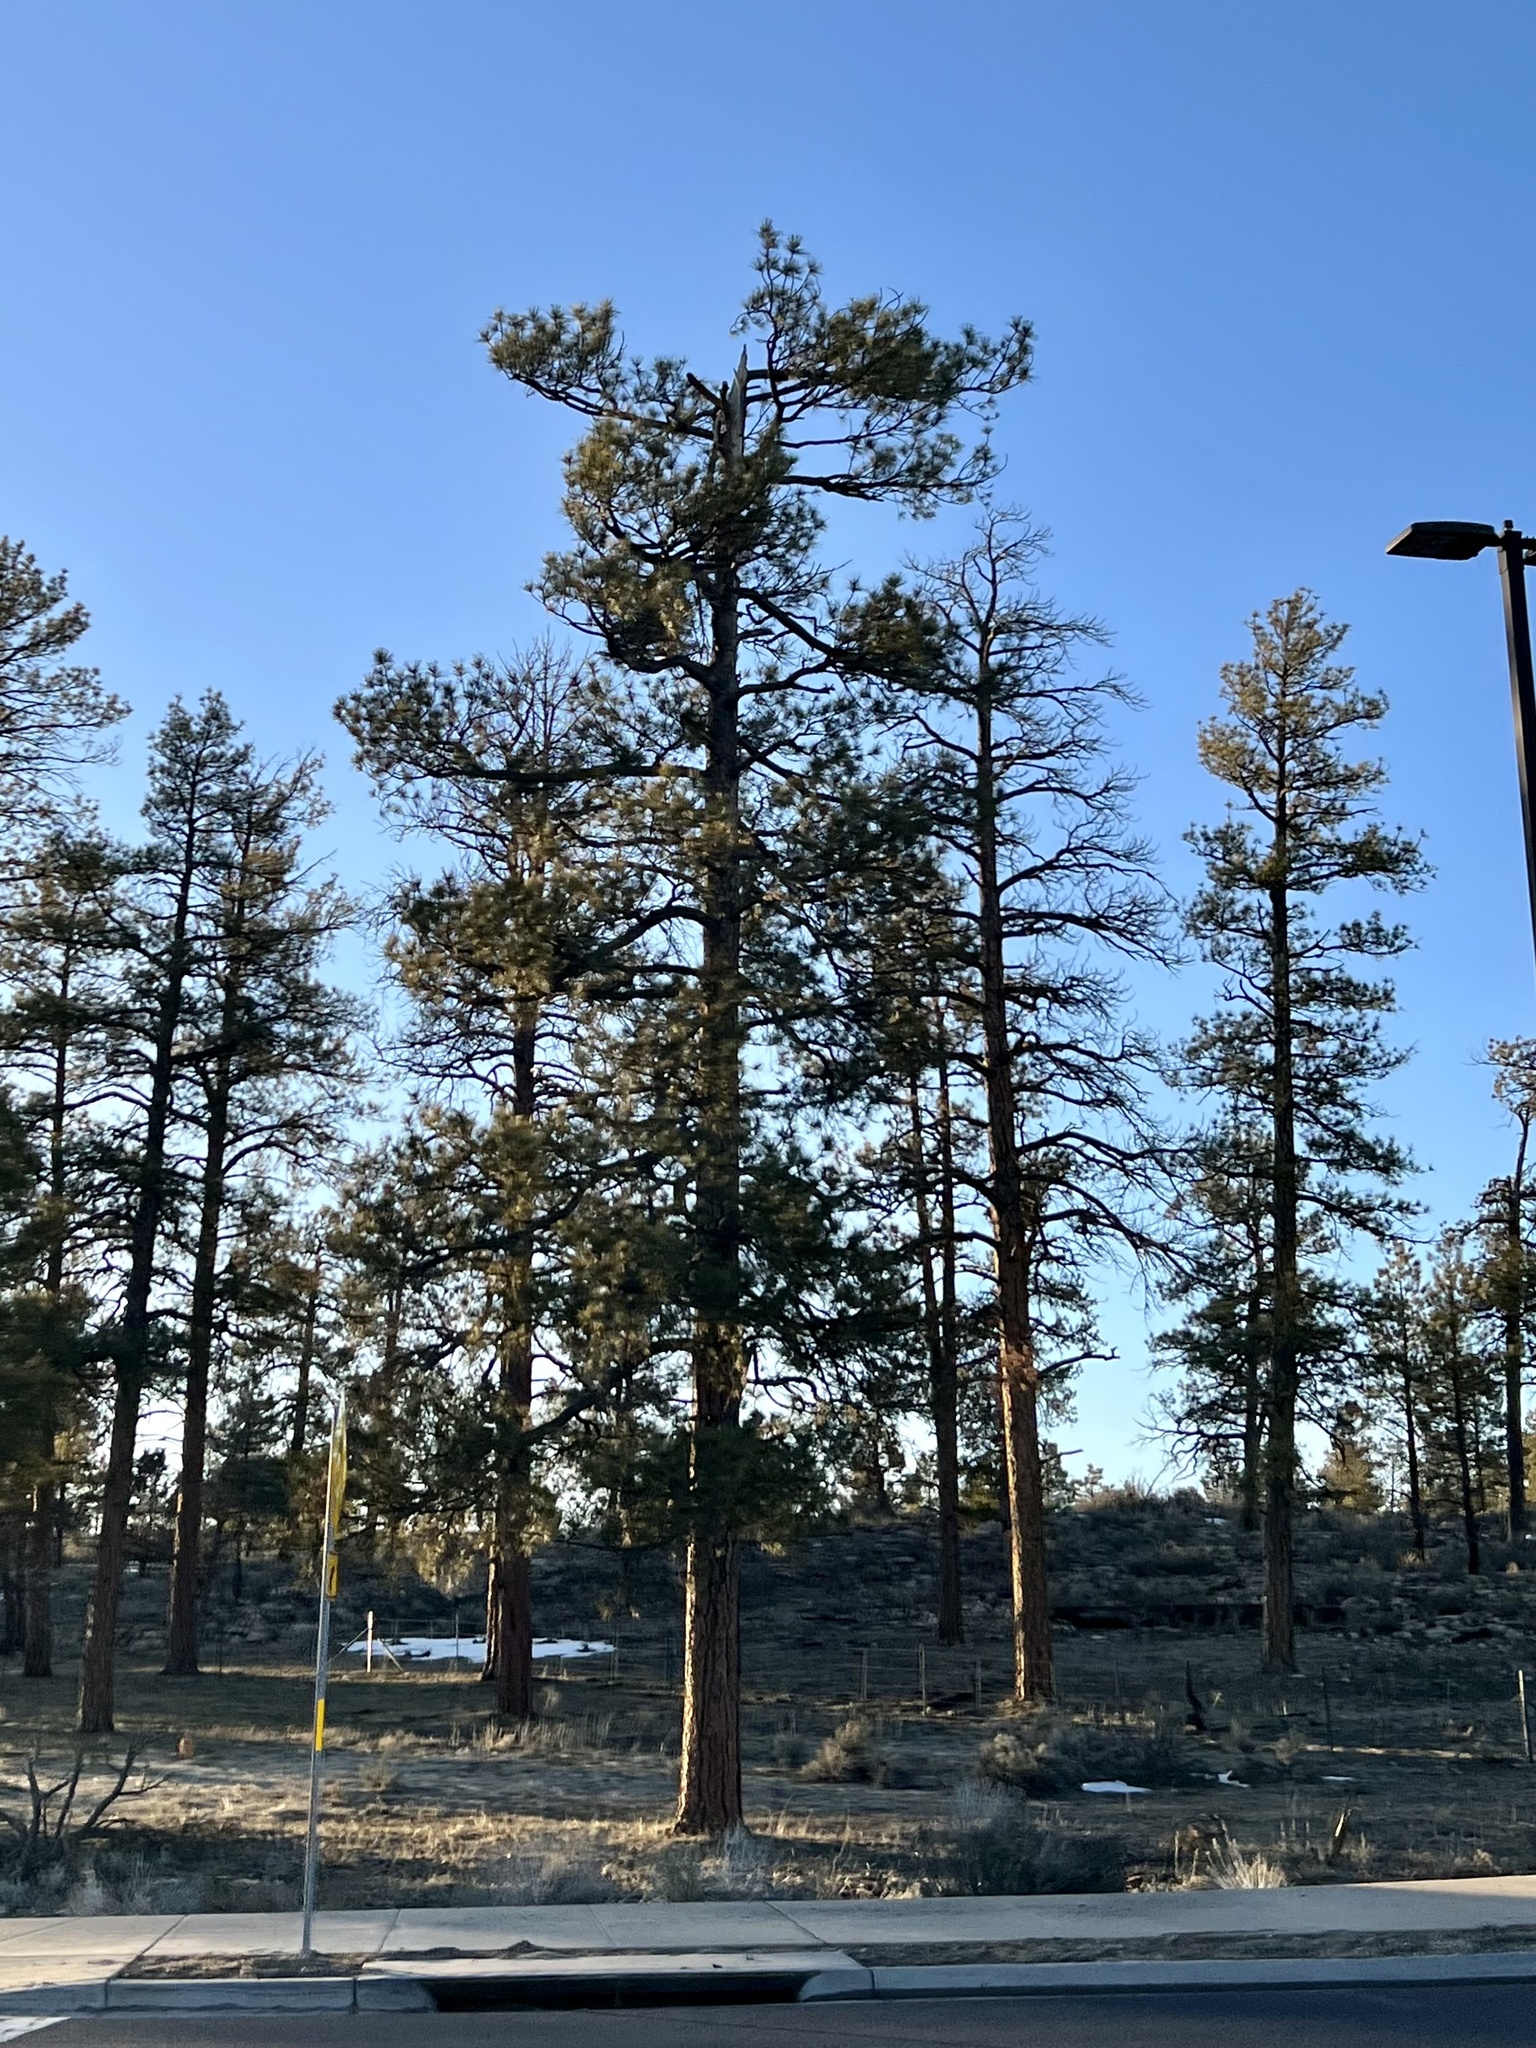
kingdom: Plantae
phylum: Tracheophyta
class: Pinopsida
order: Pinales
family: Pinaceae
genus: Pinus
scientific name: Pinus ponderosa
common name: Western yellow-pine
